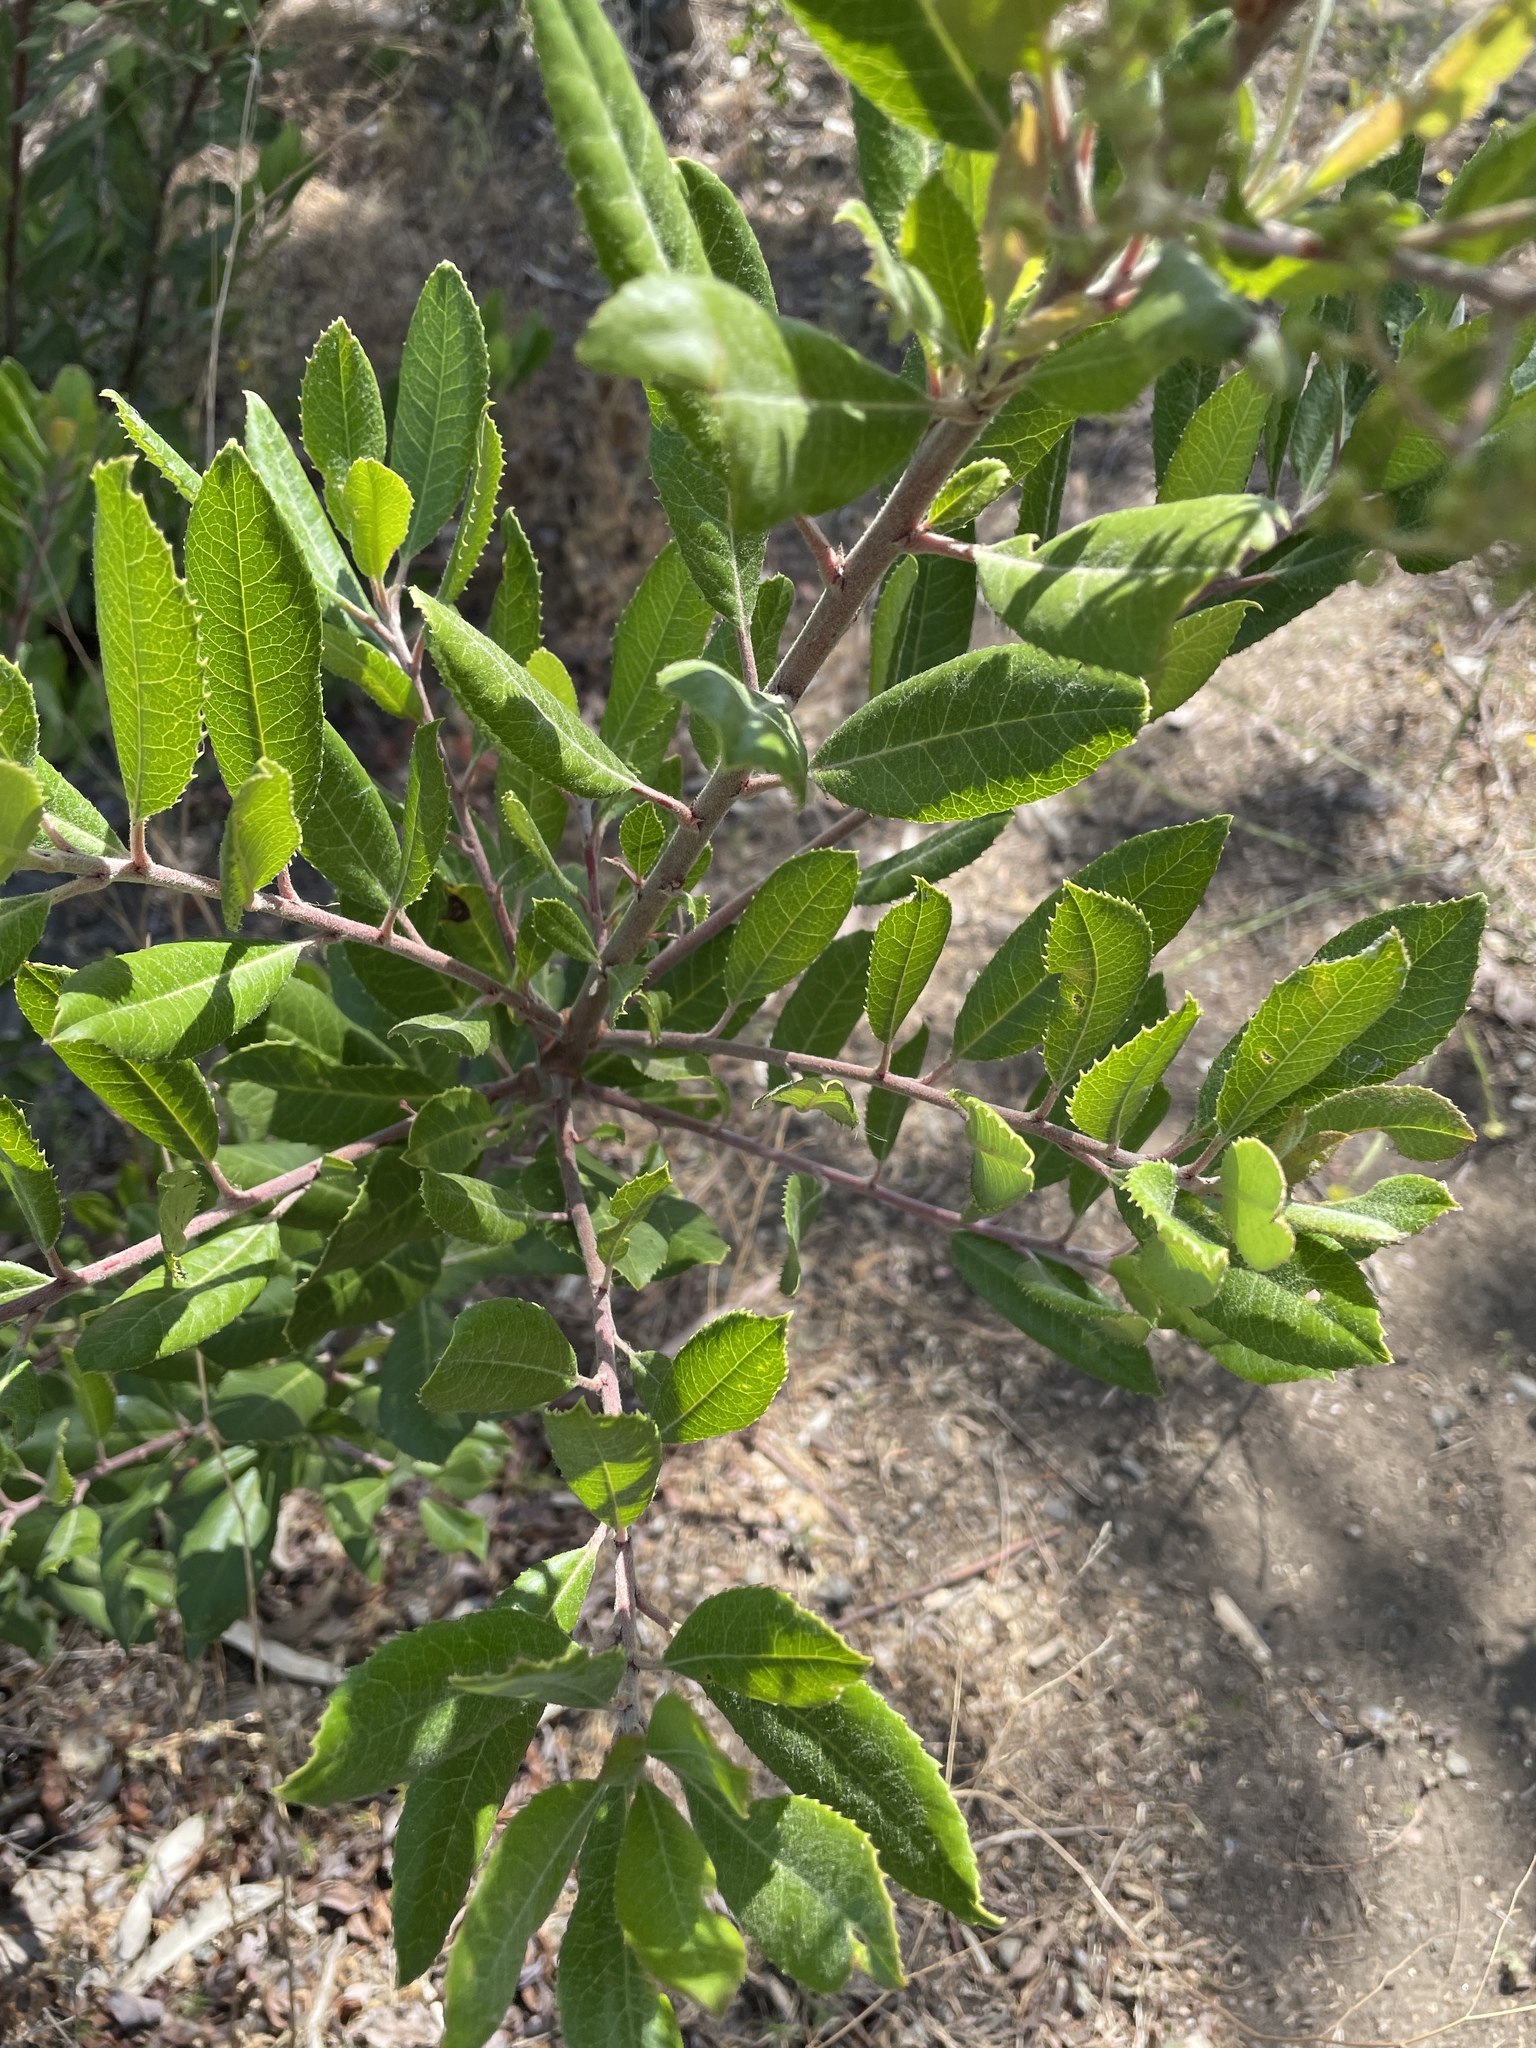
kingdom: Plantae
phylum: Tracheophyta
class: Magnoliopsida
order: Rosales
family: Rosaceae
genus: Heteromeles
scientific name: Heteromeles arbutifolia
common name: California-holly
